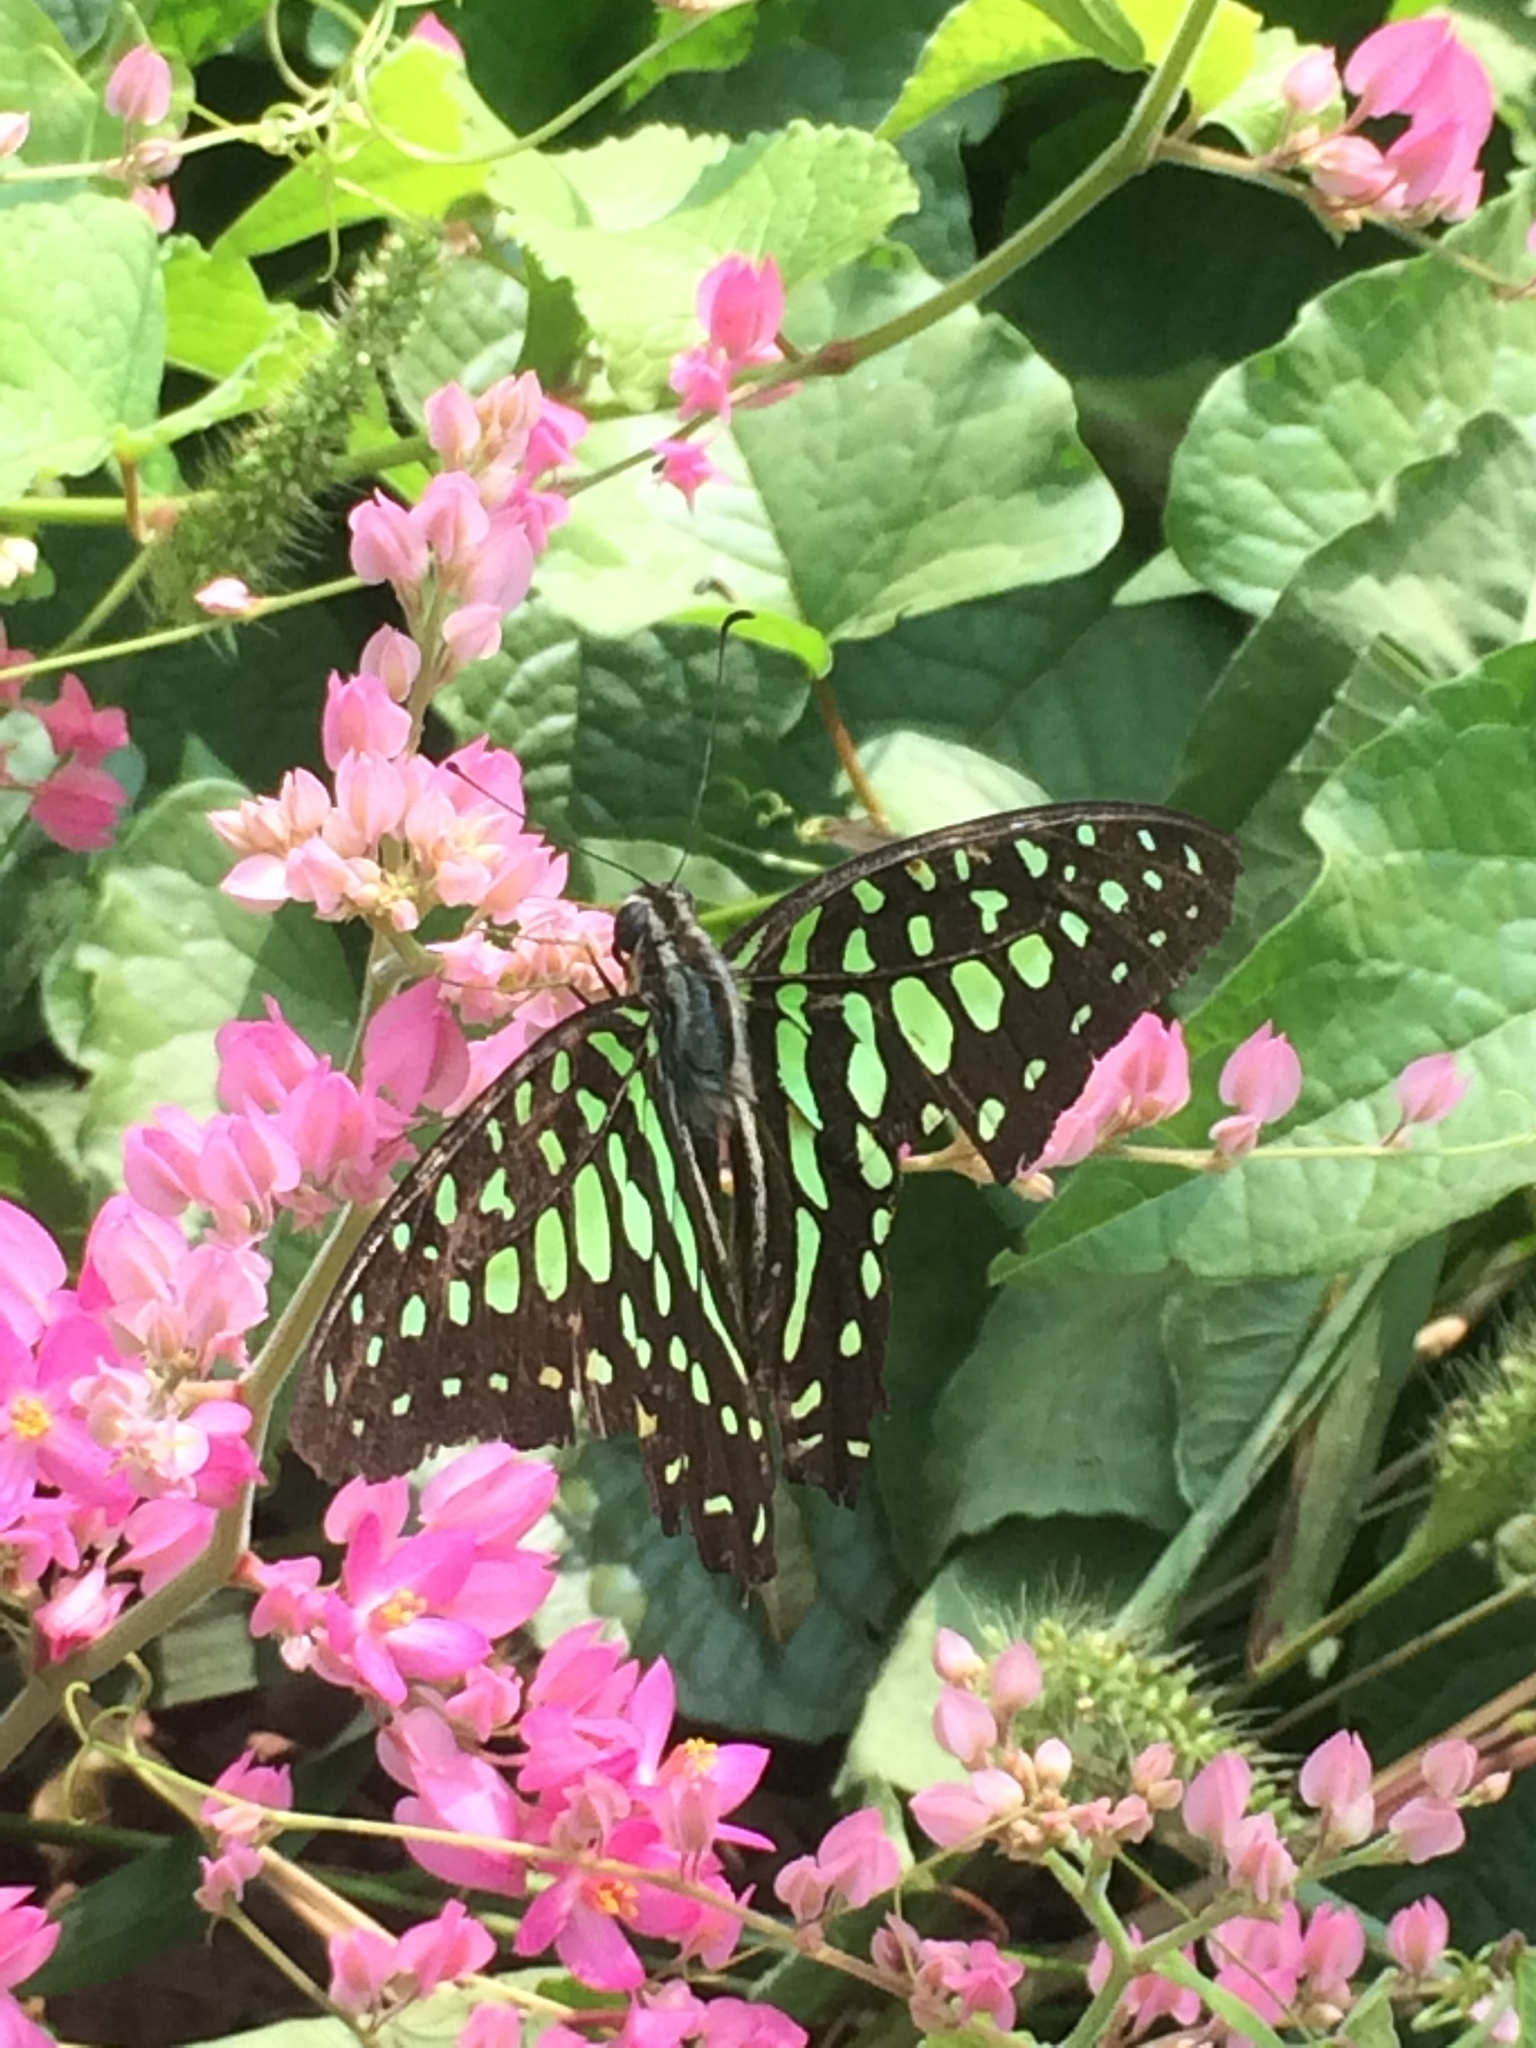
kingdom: Animalia
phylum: Arthropoda
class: Insecta
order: Lepidoptera
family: Papilionidae
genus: Graphium
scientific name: Graphium agamemnon
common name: Tailed jay
